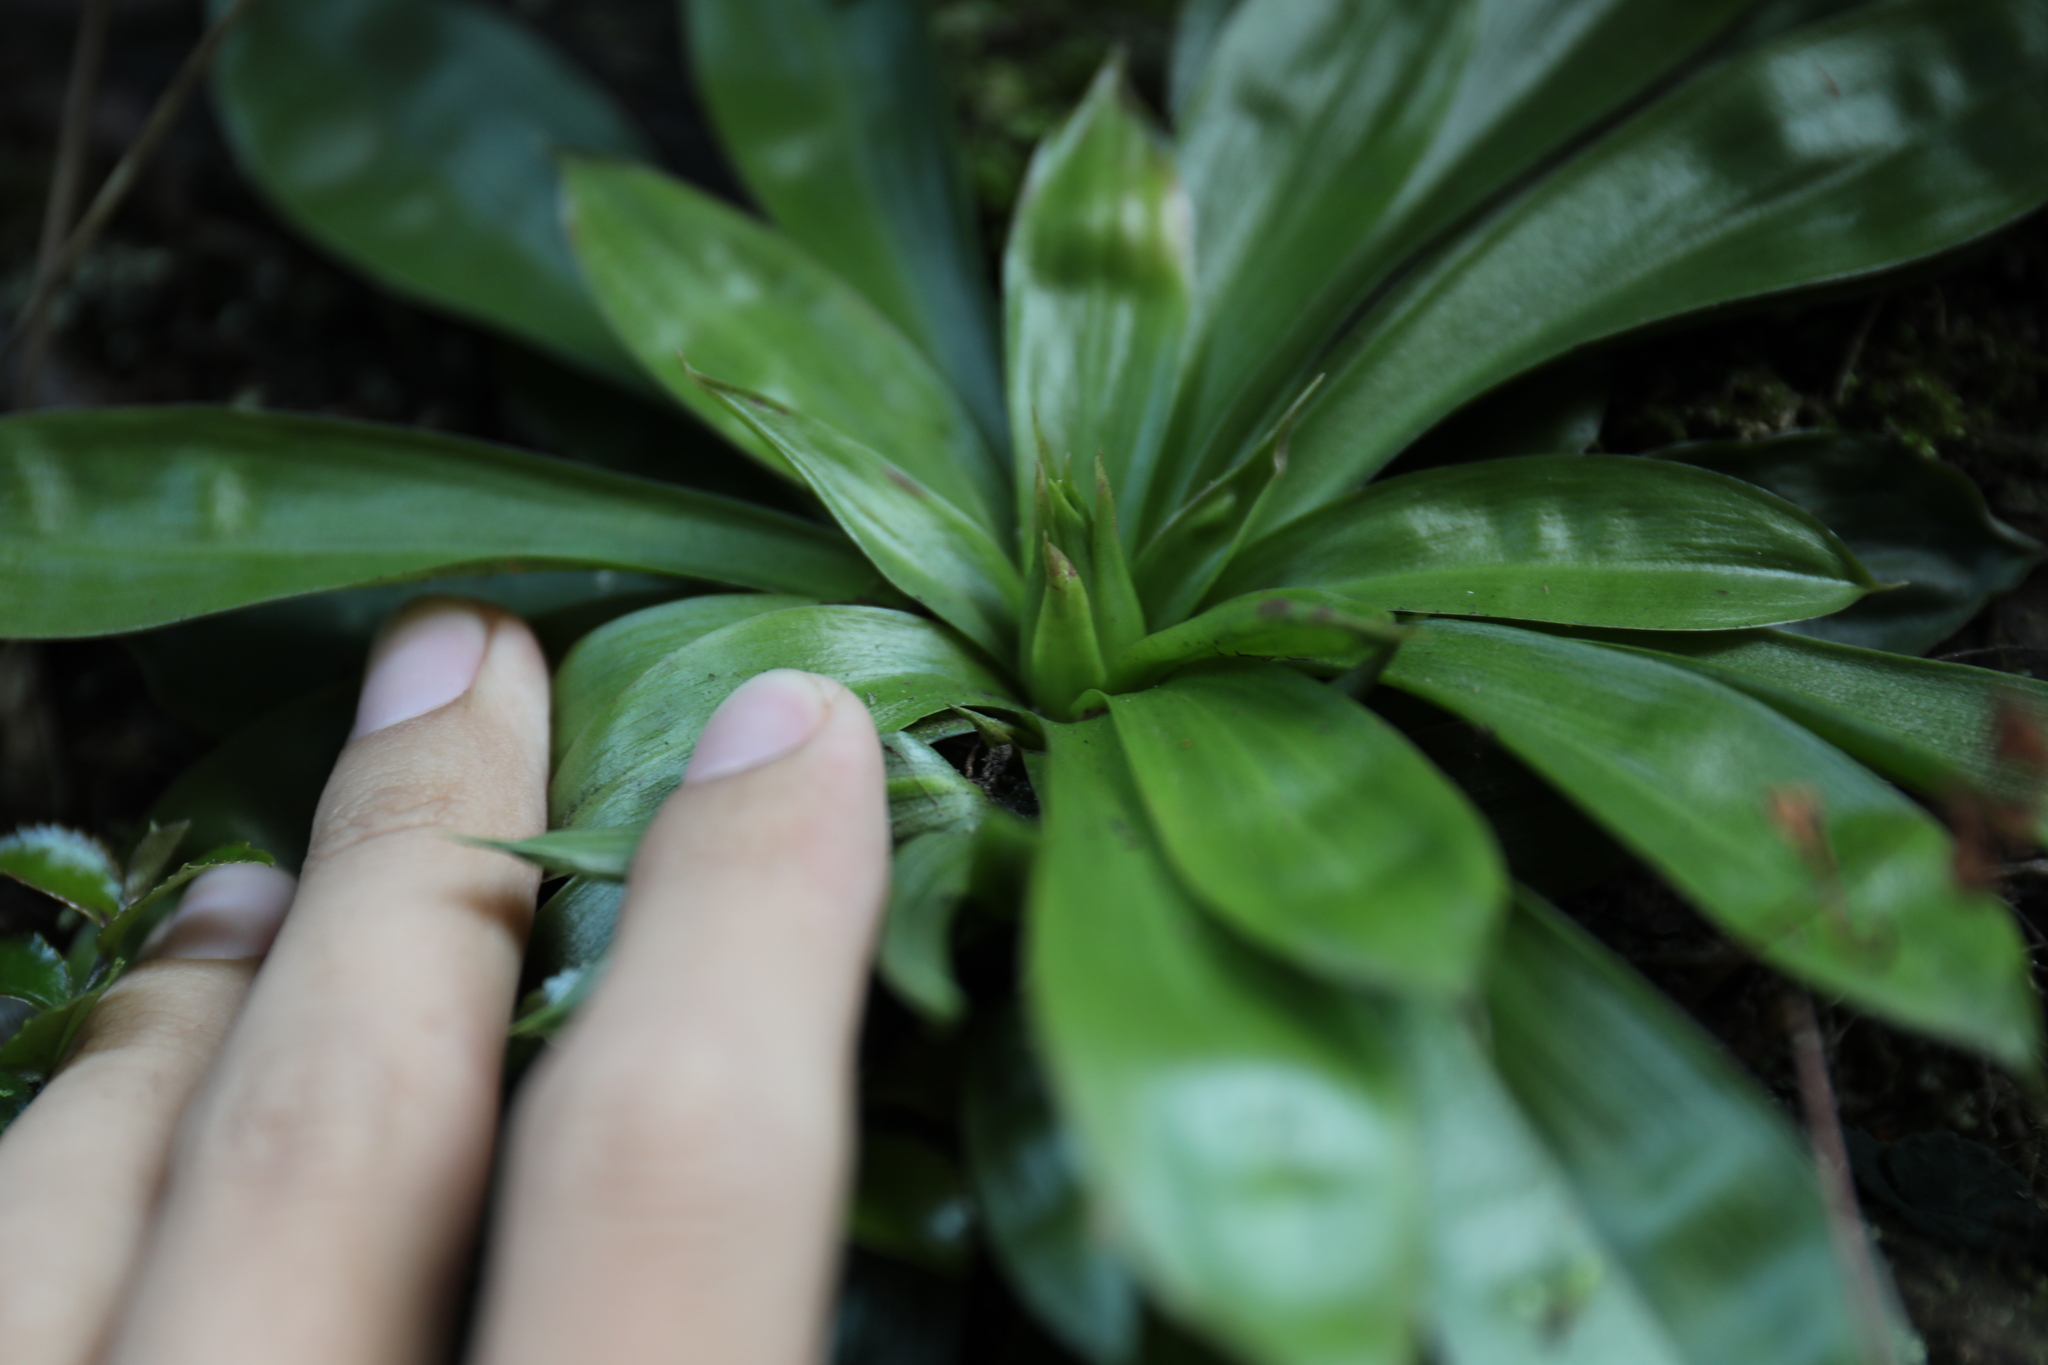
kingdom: Plantae
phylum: Tracheophyta
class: Liliopsida
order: Liliales
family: Melanthiaceae
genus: Helonias
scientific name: Helonias umbellata
